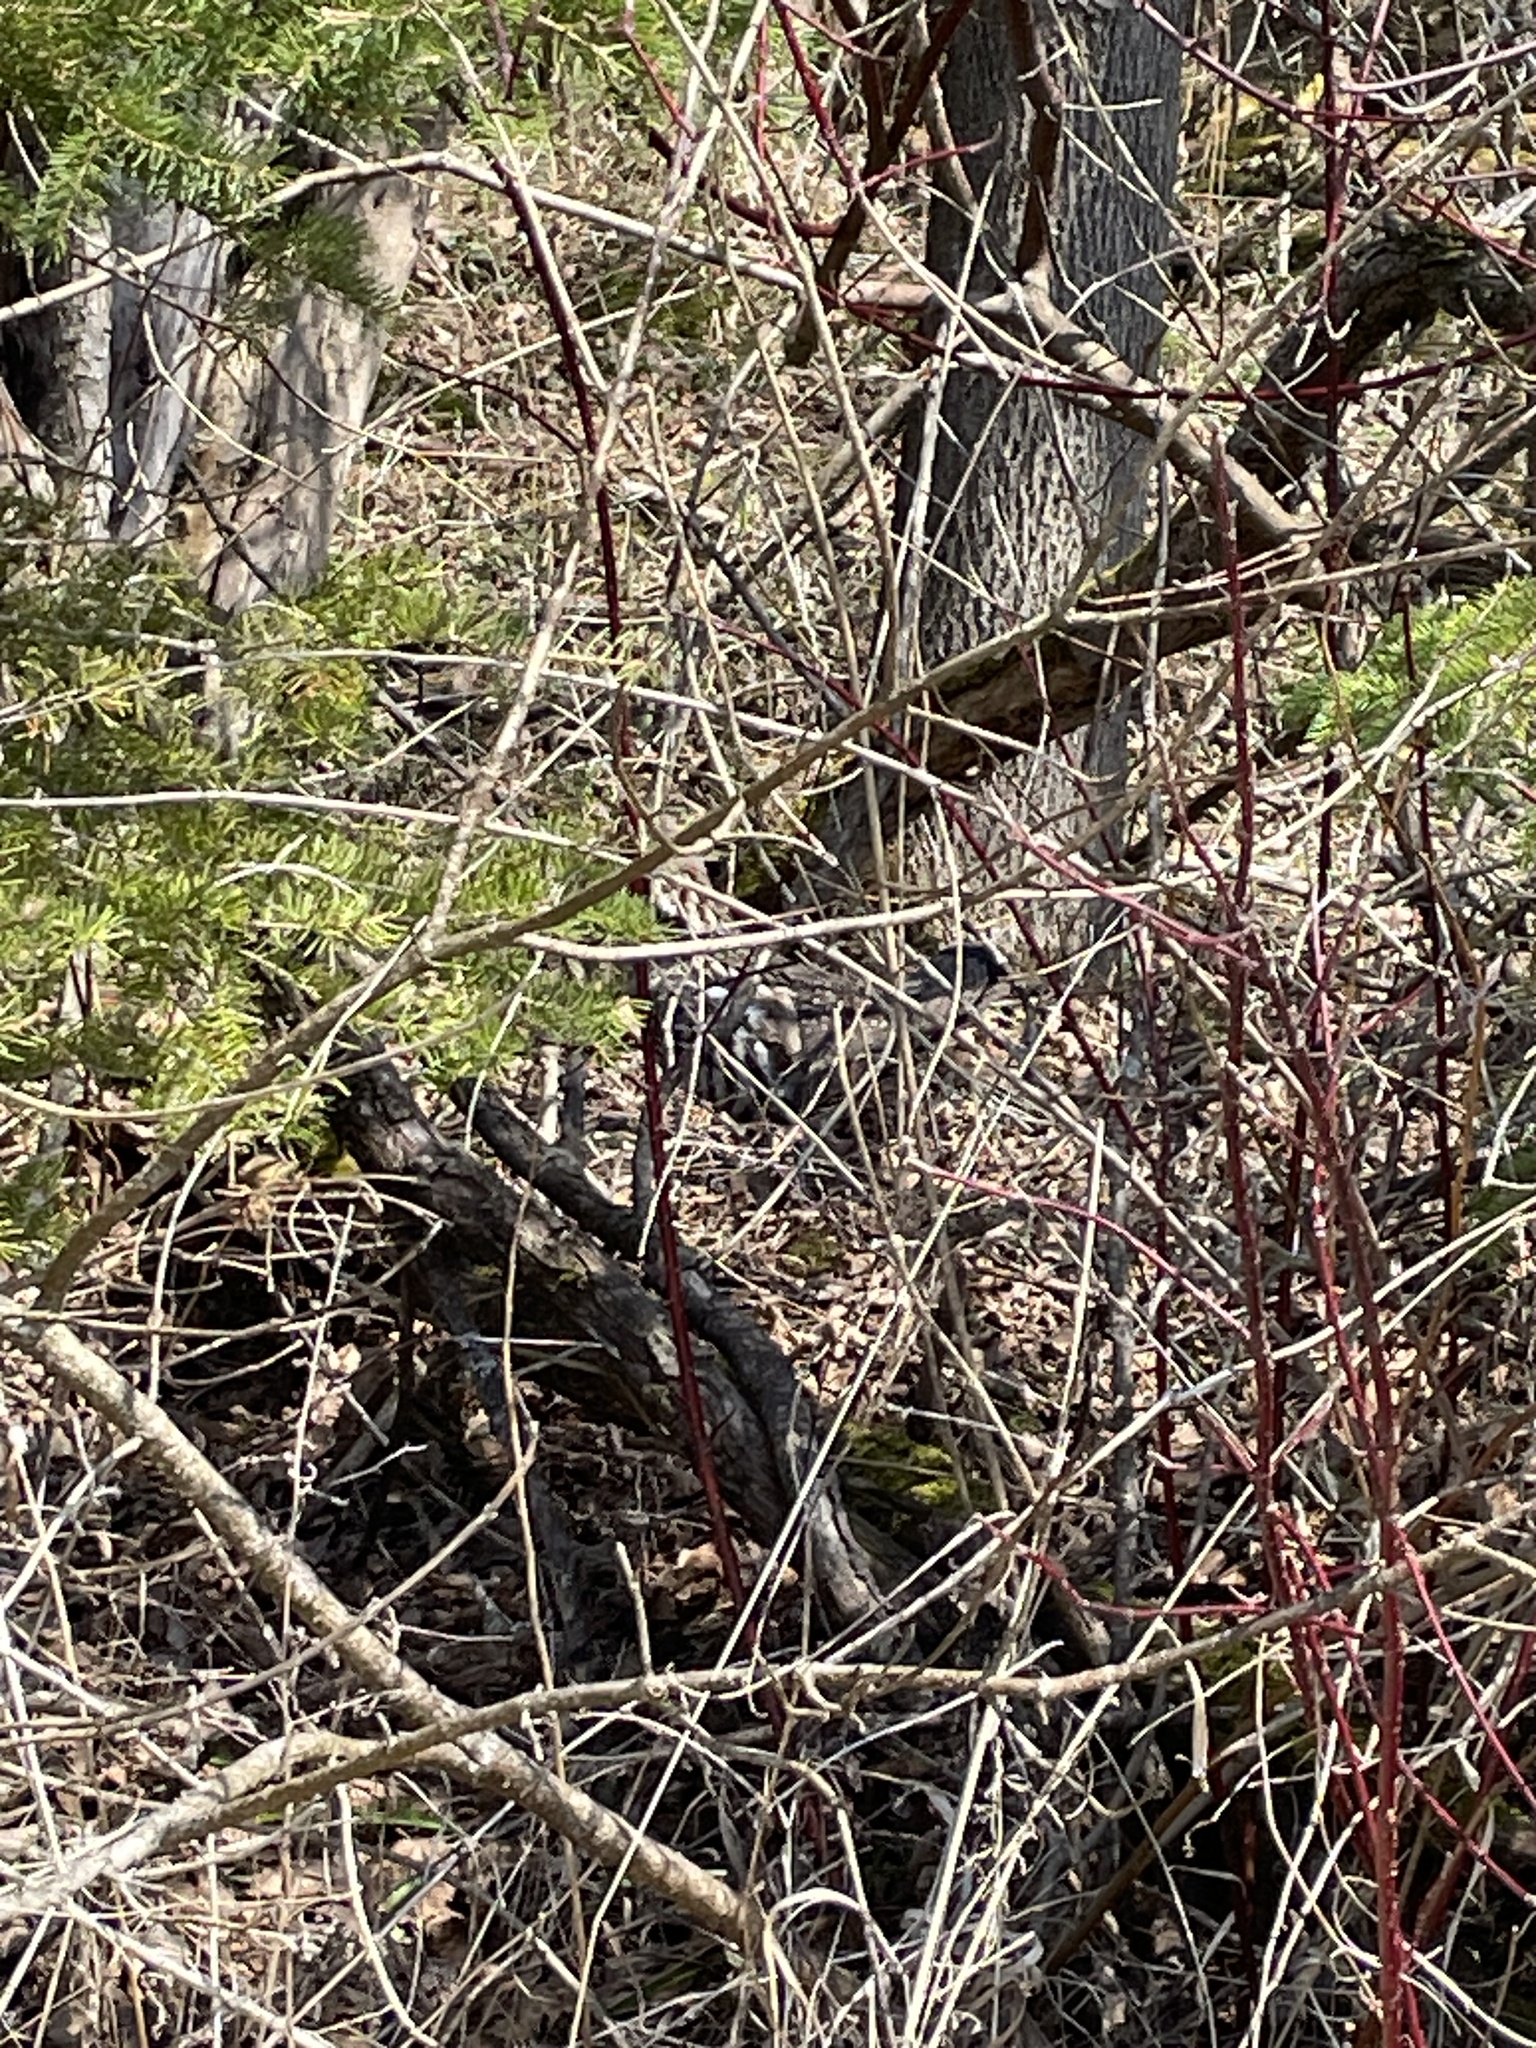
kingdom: Animalia
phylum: Chordata
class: Aves
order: Galliformes
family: Phasianidae
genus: Bonasa
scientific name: Bonasa umbellus
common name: Ruffed grouse
